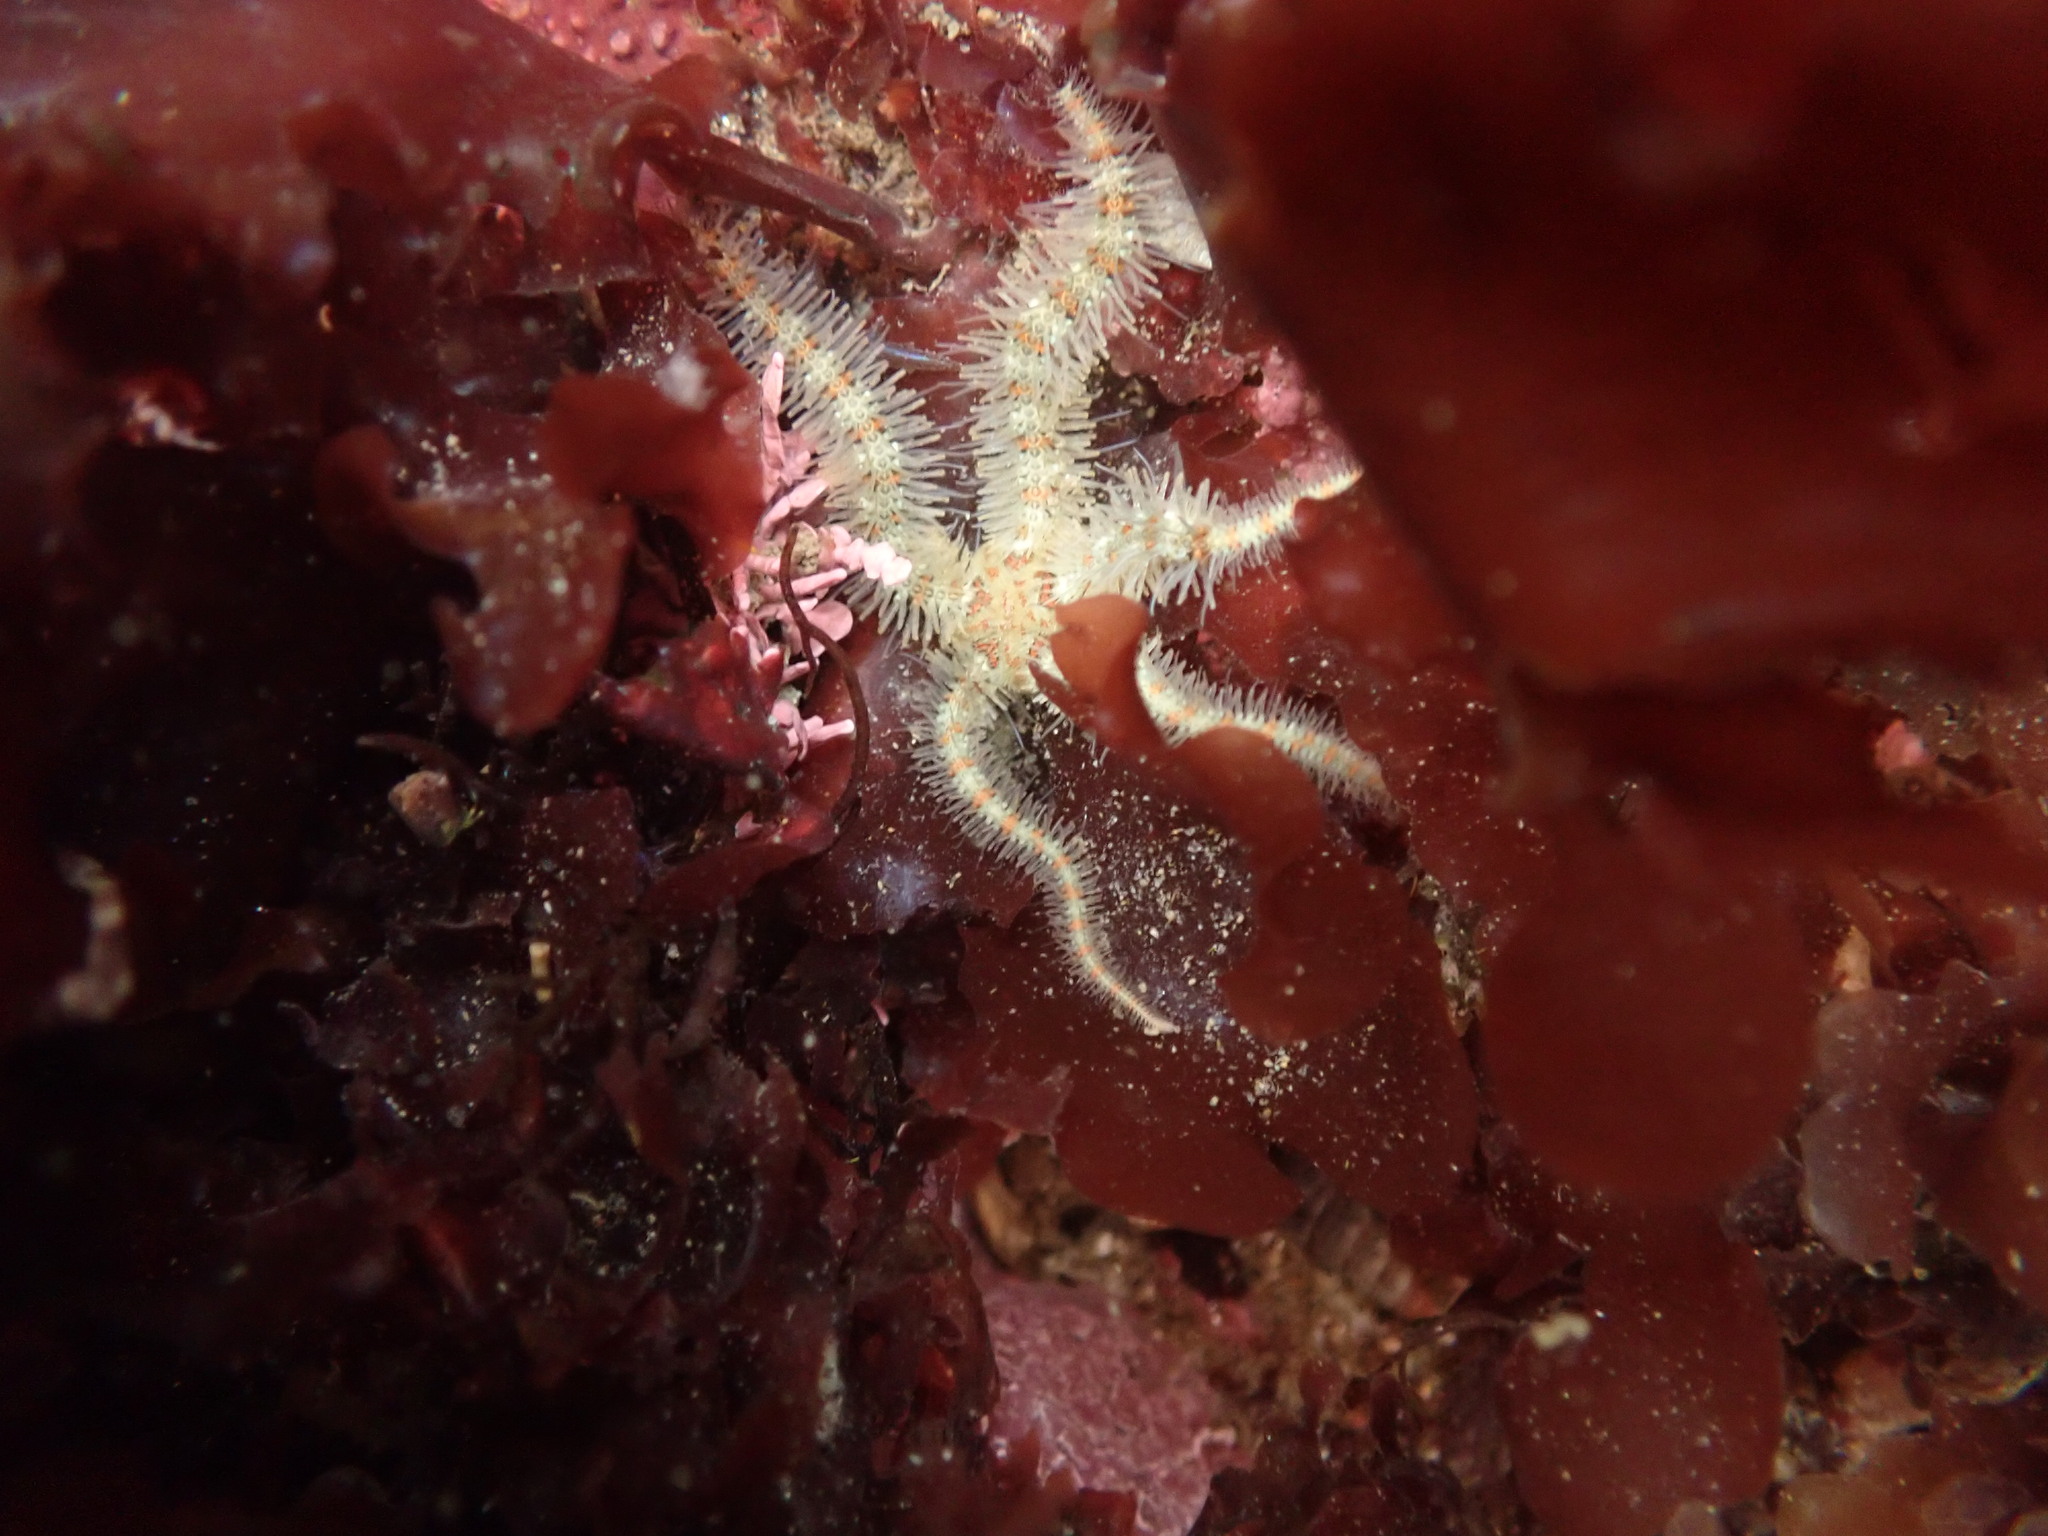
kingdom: Animalia
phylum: Echinodermata
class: Ophiuroidea
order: Amphilepidida
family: Ophiotrichidae
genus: Ophiothrix
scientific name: Ophiothrix spiculata
